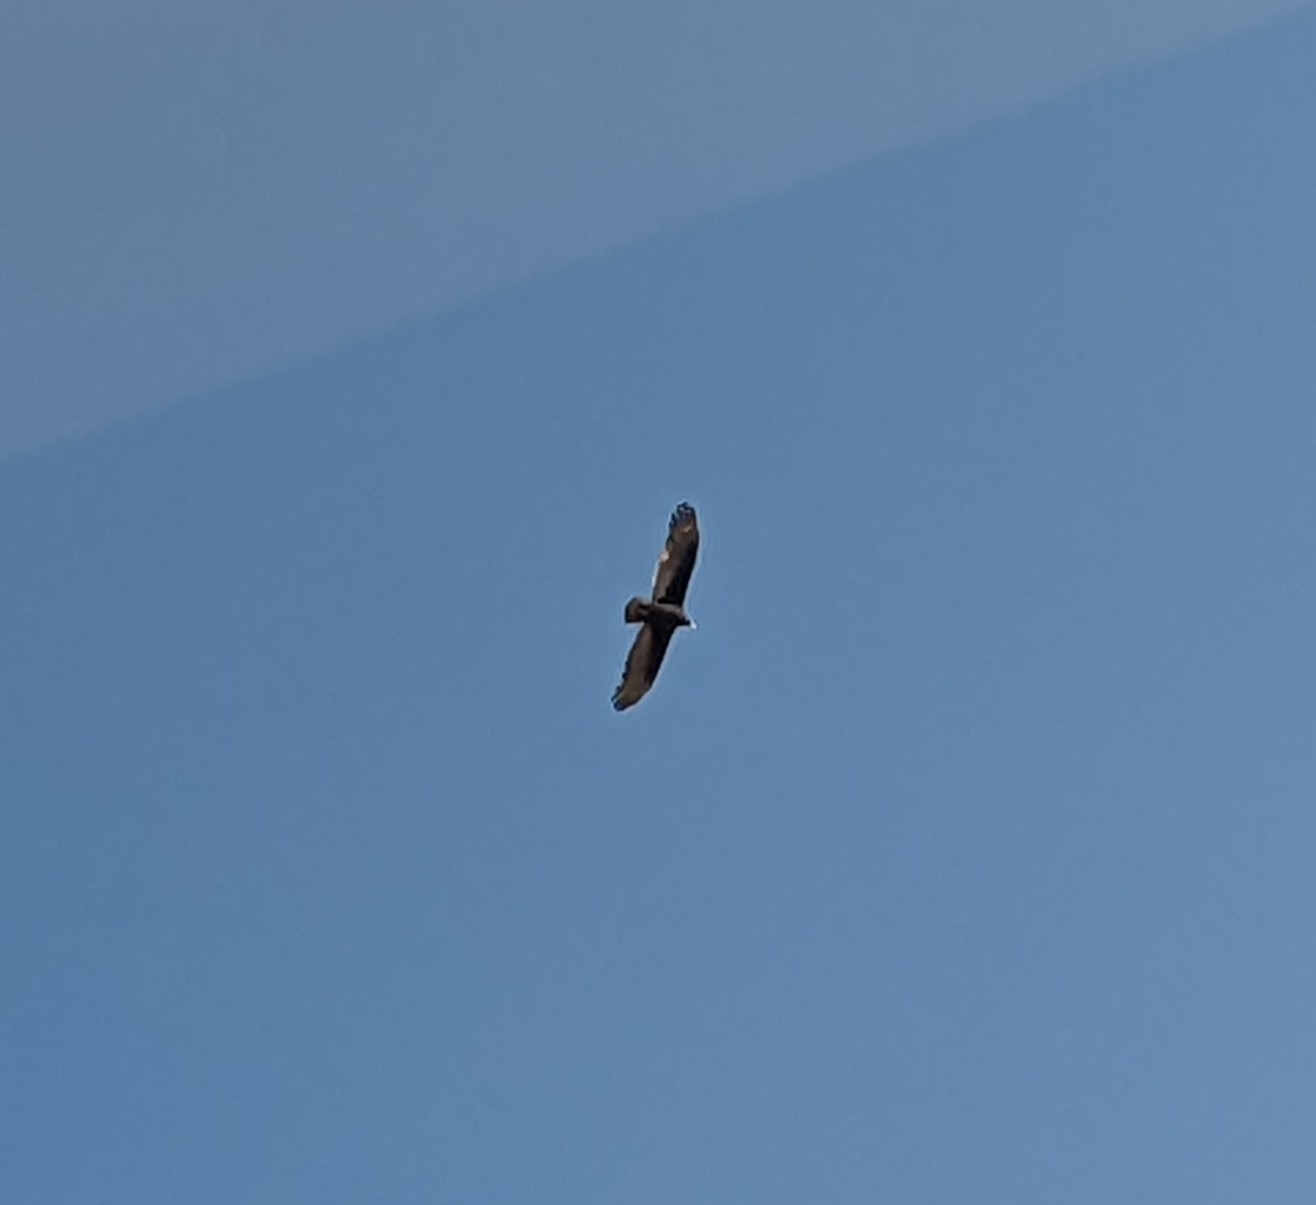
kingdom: Animalia
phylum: Chordata
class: Aves
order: Accipitriformes
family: Cathartidae
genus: Cathartes
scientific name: Cathartes aura
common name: Turkey vulture
